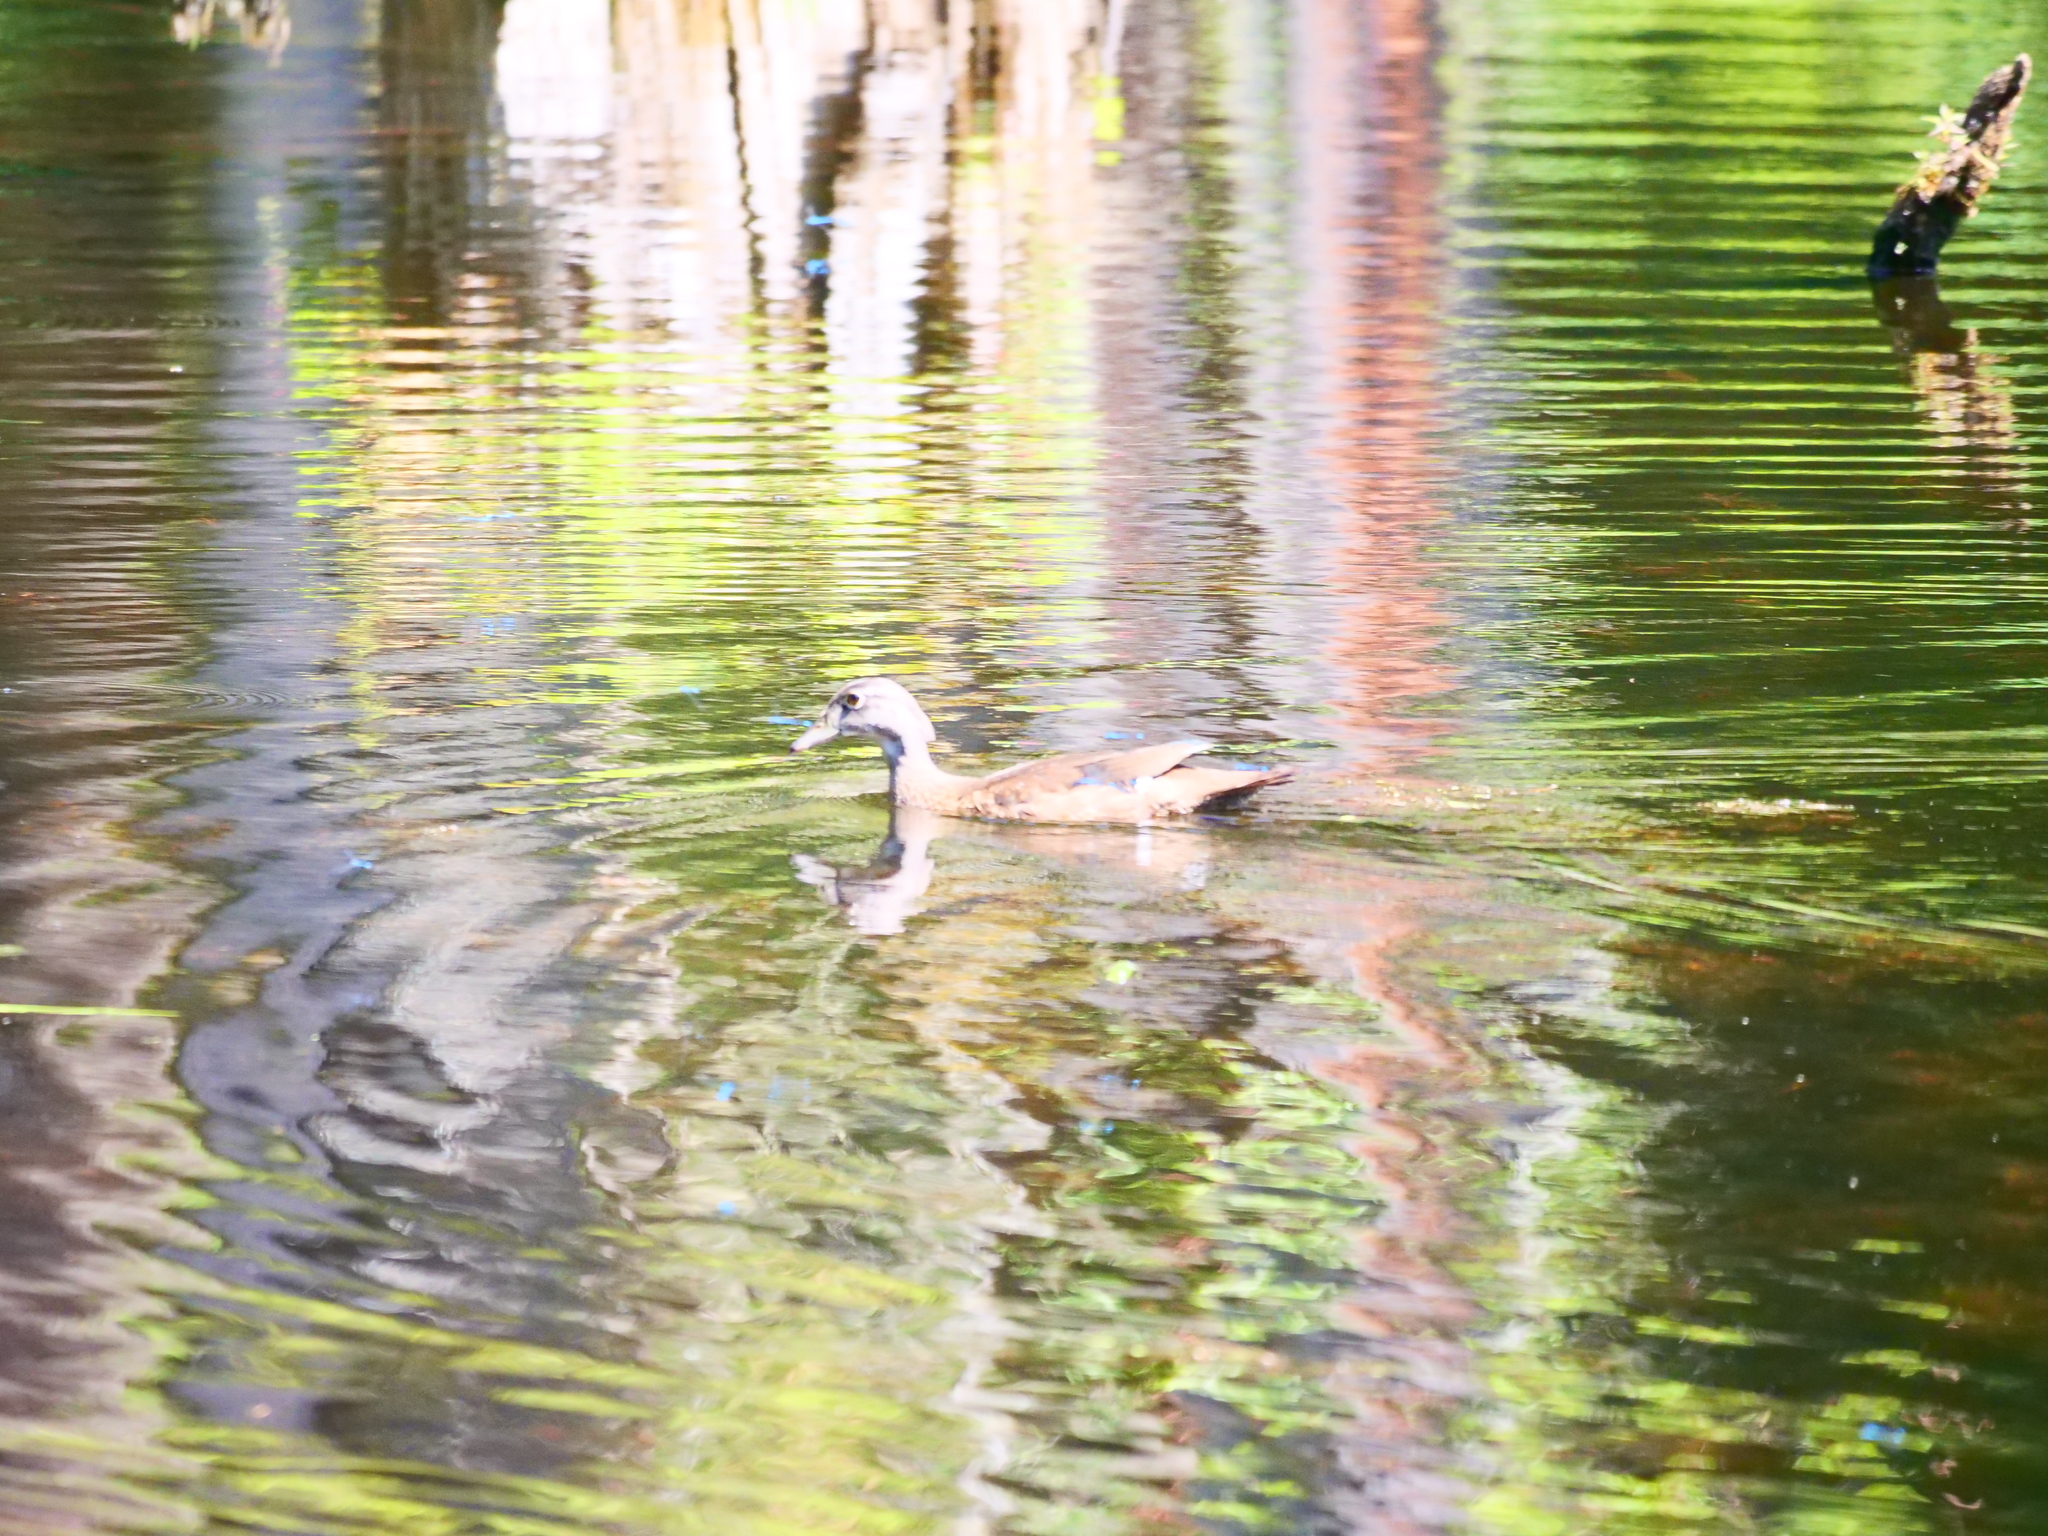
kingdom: Animalia
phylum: Chordata
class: Aves
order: Anseriformes
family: Anatidae
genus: Aix
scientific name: Aix sponsa
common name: Wood duck
